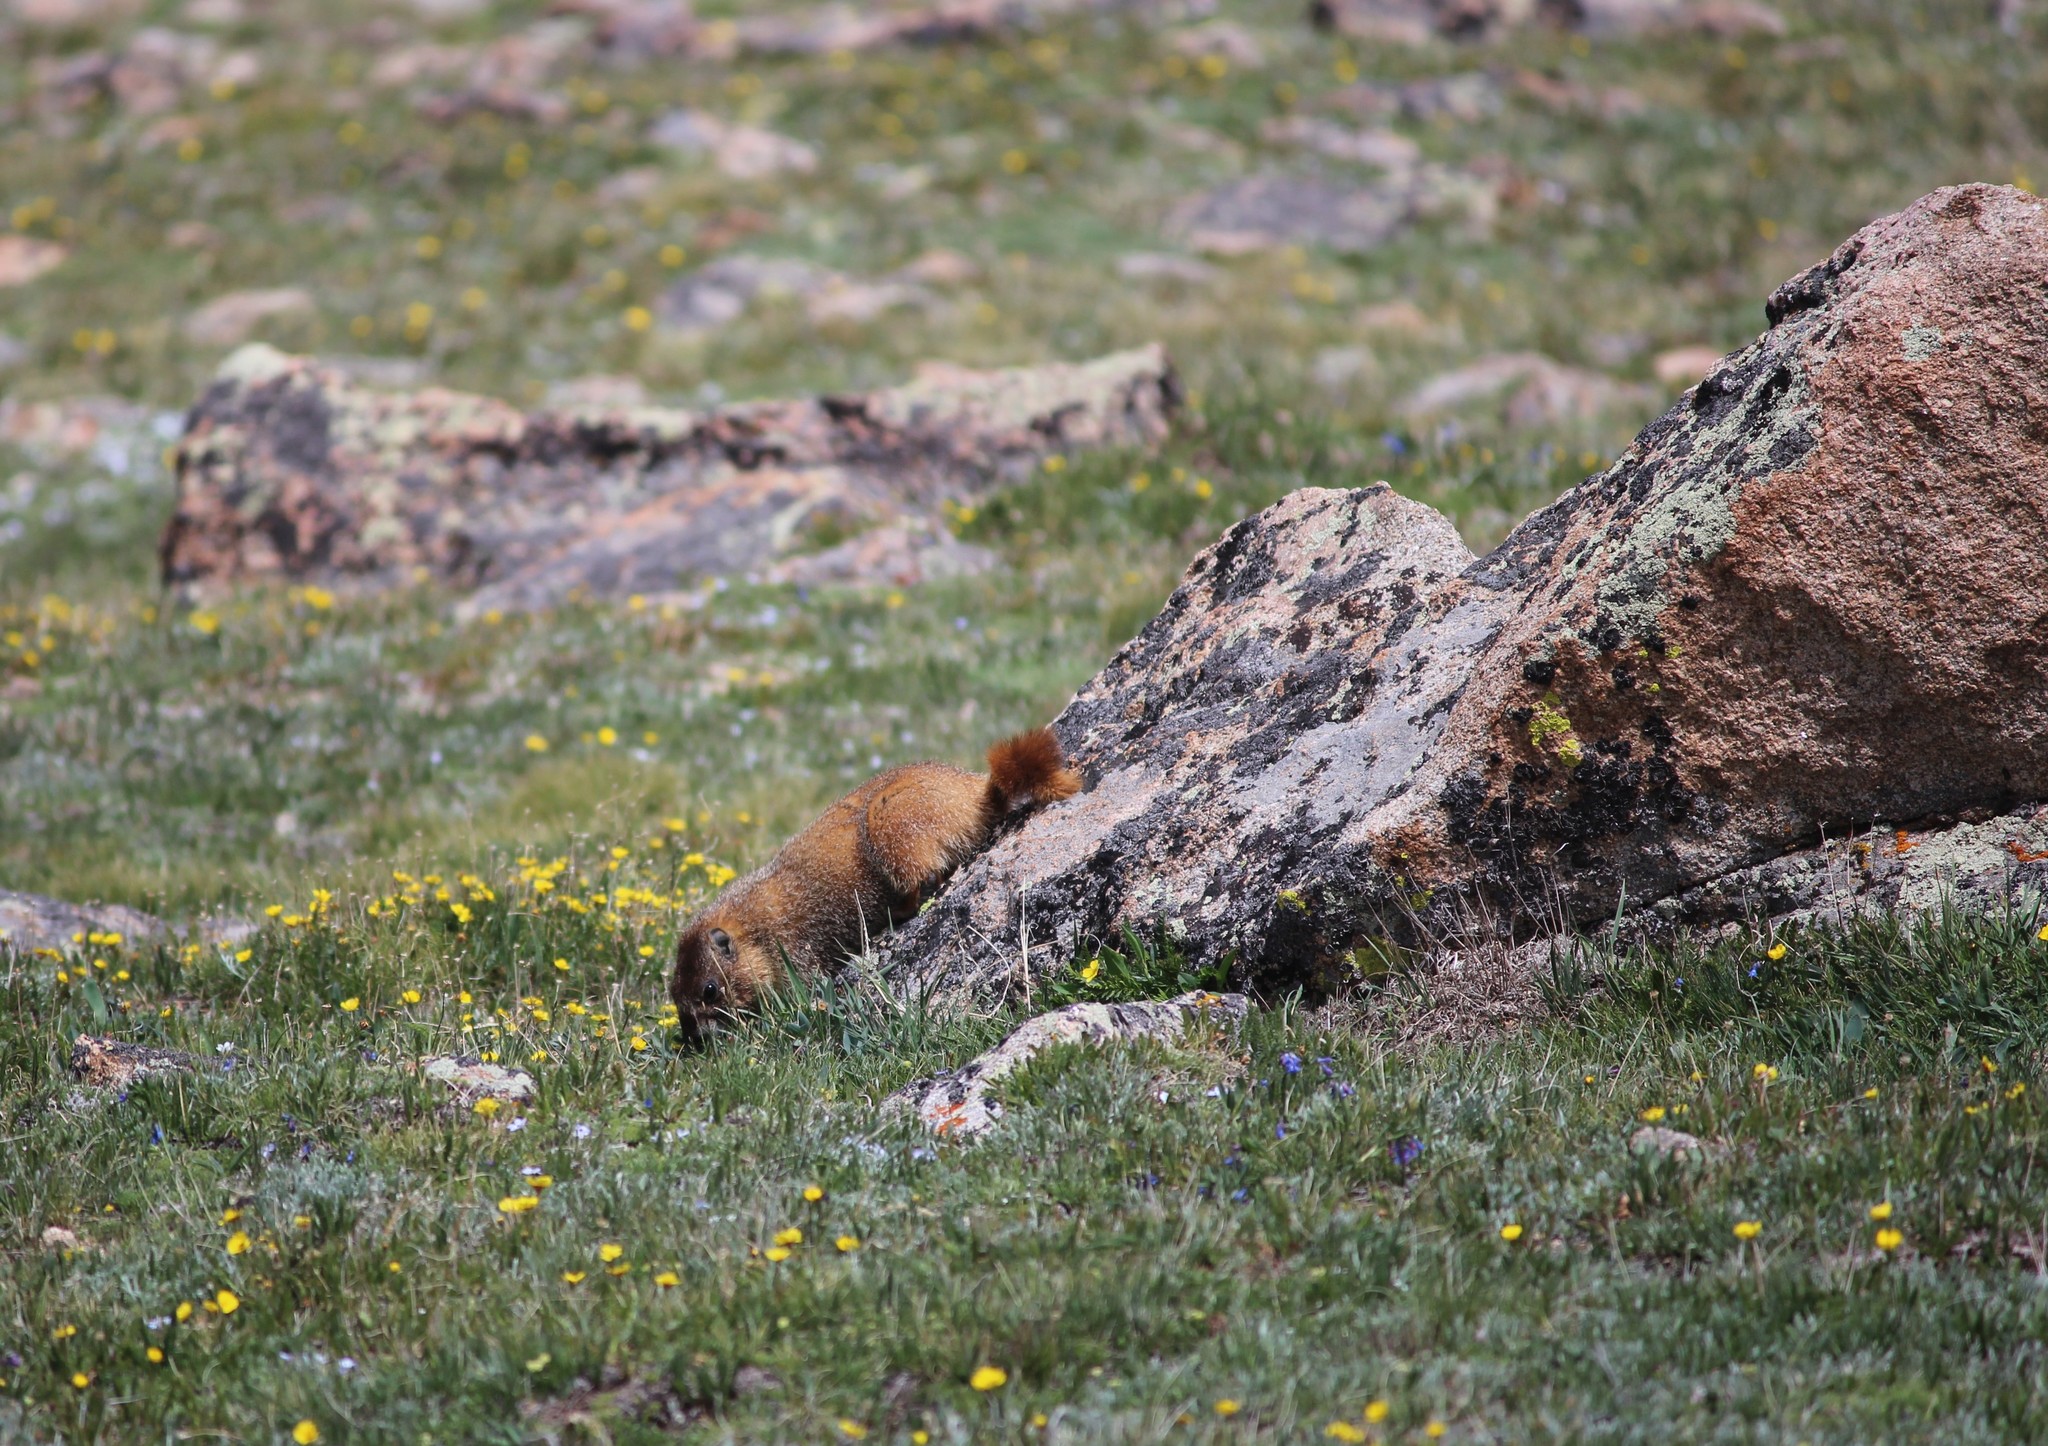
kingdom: Animalia
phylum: Chordata
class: Mammalia
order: Rodentia
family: Sciuridae
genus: Marmota
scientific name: Marmota flaviventris
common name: Yellow-bellied marmot
